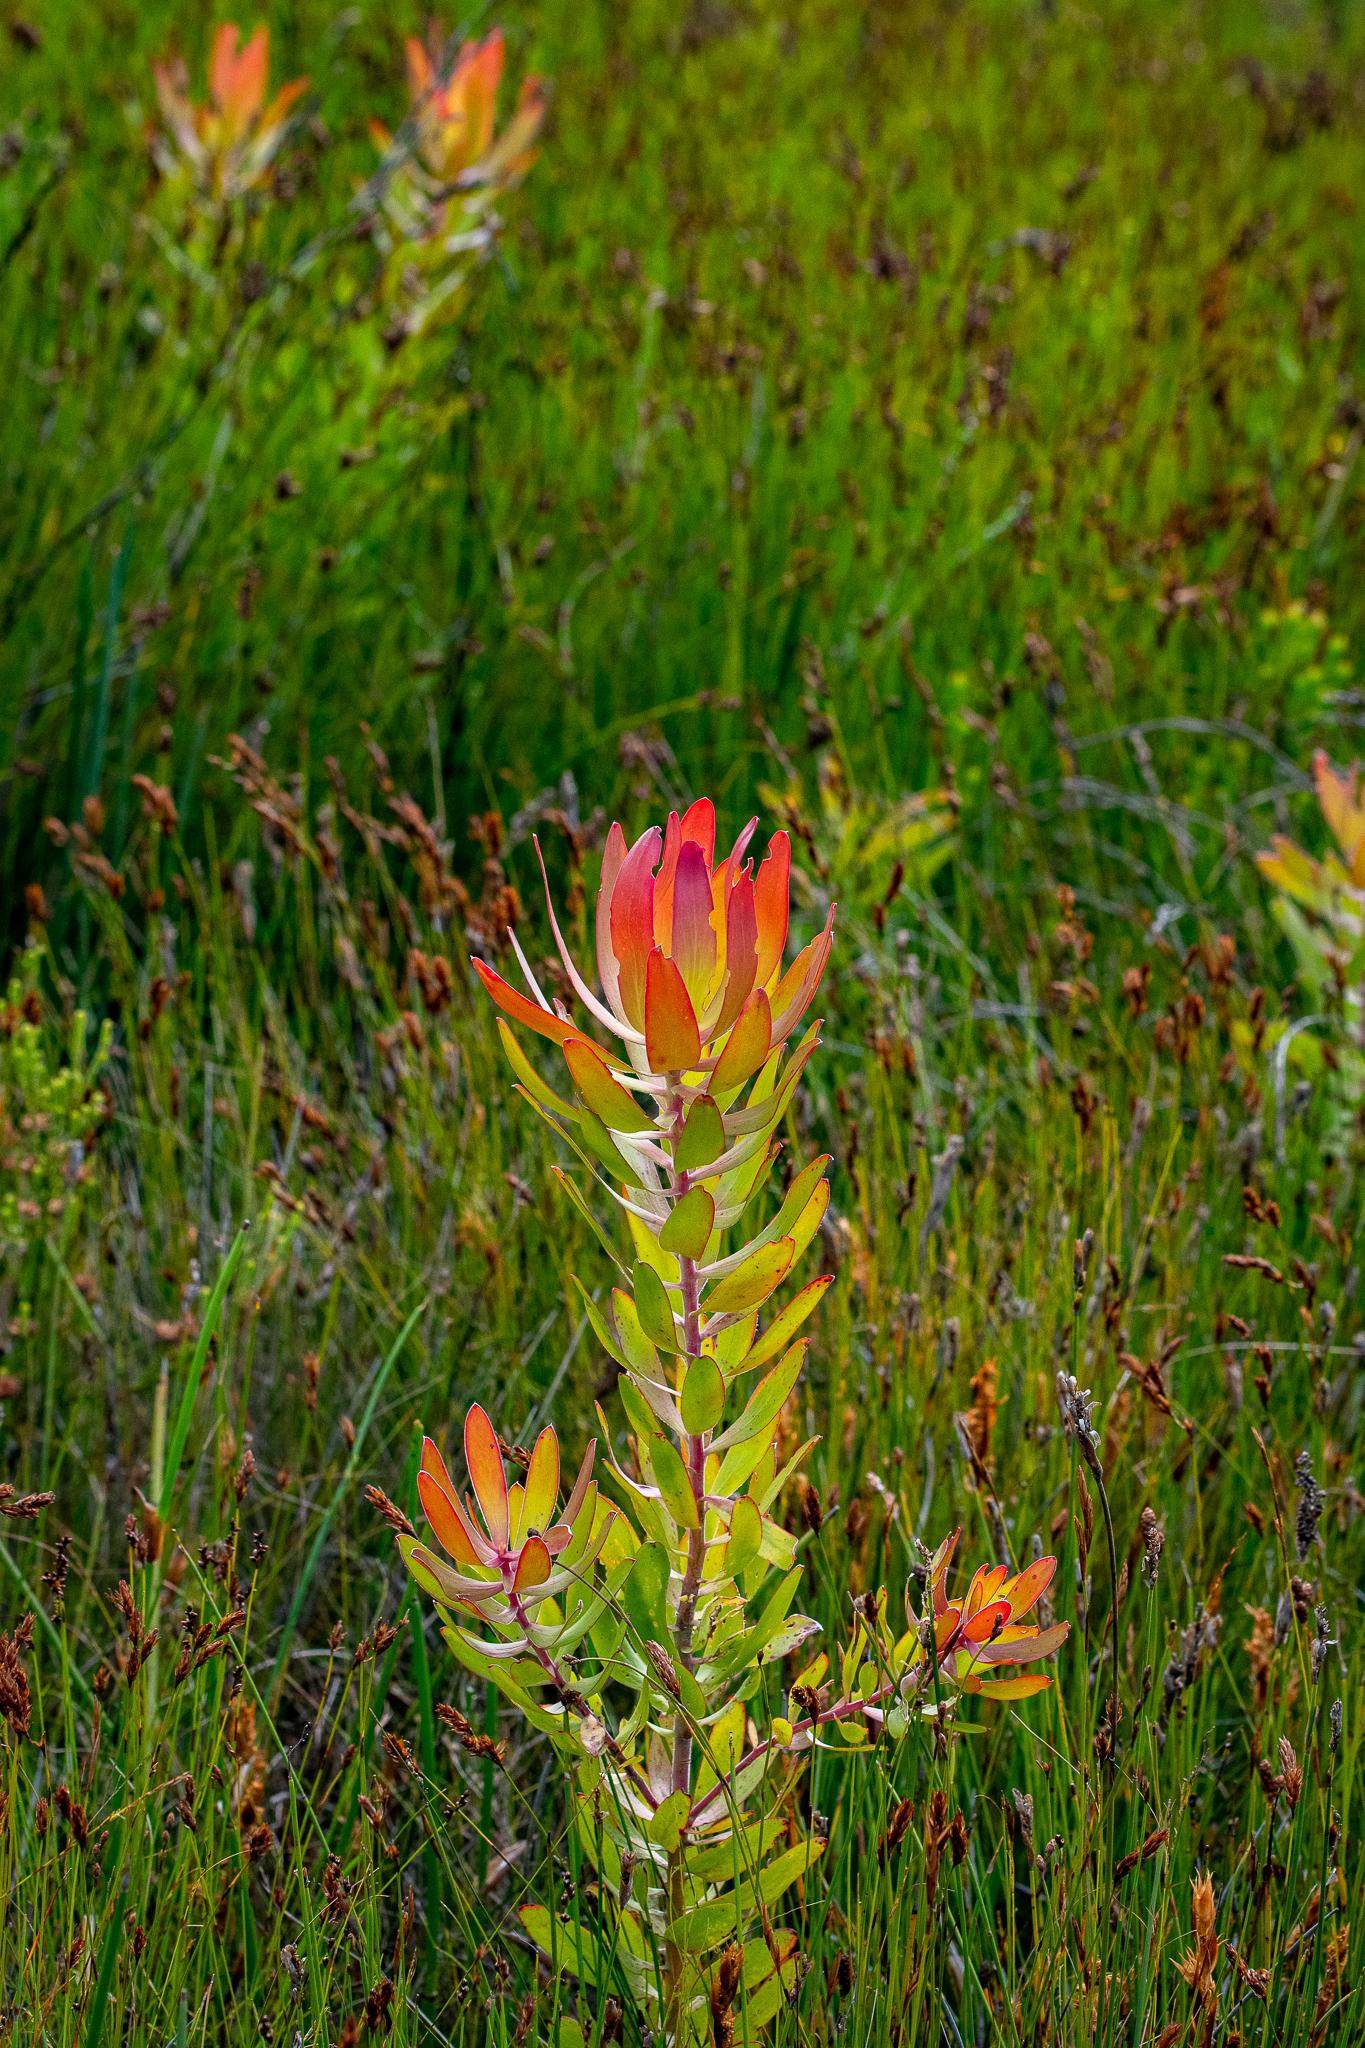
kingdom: Plantae
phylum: Tracheophyta
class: Magnoliopsida
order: Proteales
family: Proteaceae
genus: Leucadendron
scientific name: Leucadendron gandogeri
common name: Broad-leaf conebush
